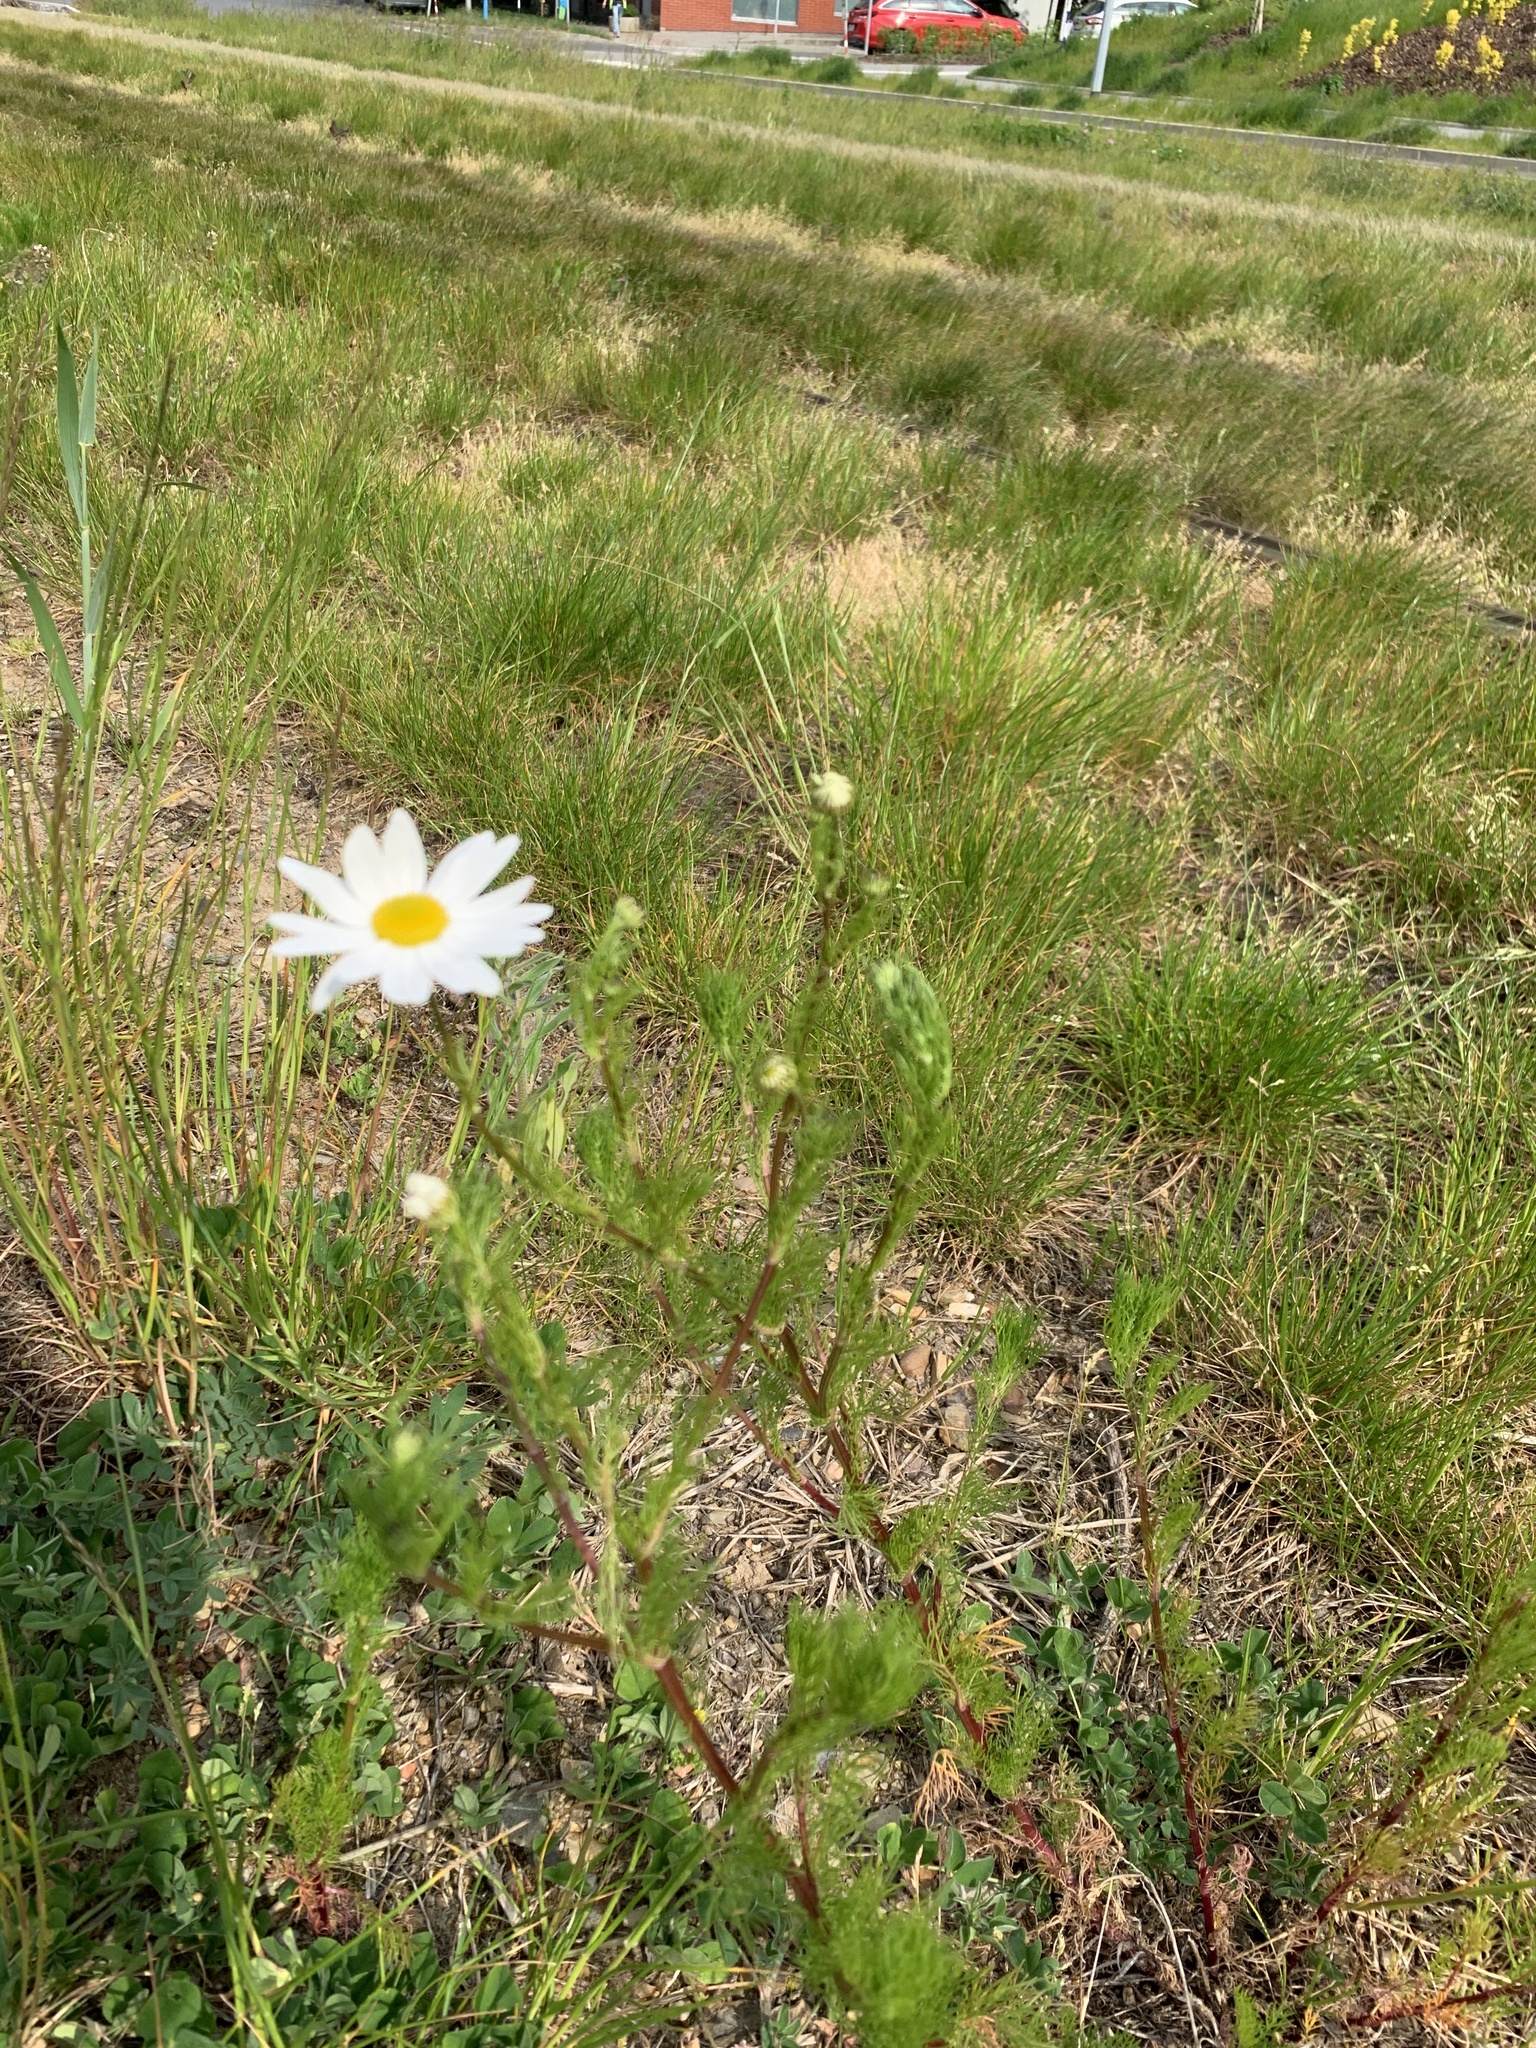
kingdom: Plantae
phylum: Tracheophyta
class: Magnoliopsida
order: Asterales
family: Asteraceae
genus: Tripleurospermum
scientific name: Tripleurospermum inodorum
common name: Scentless mayweed
